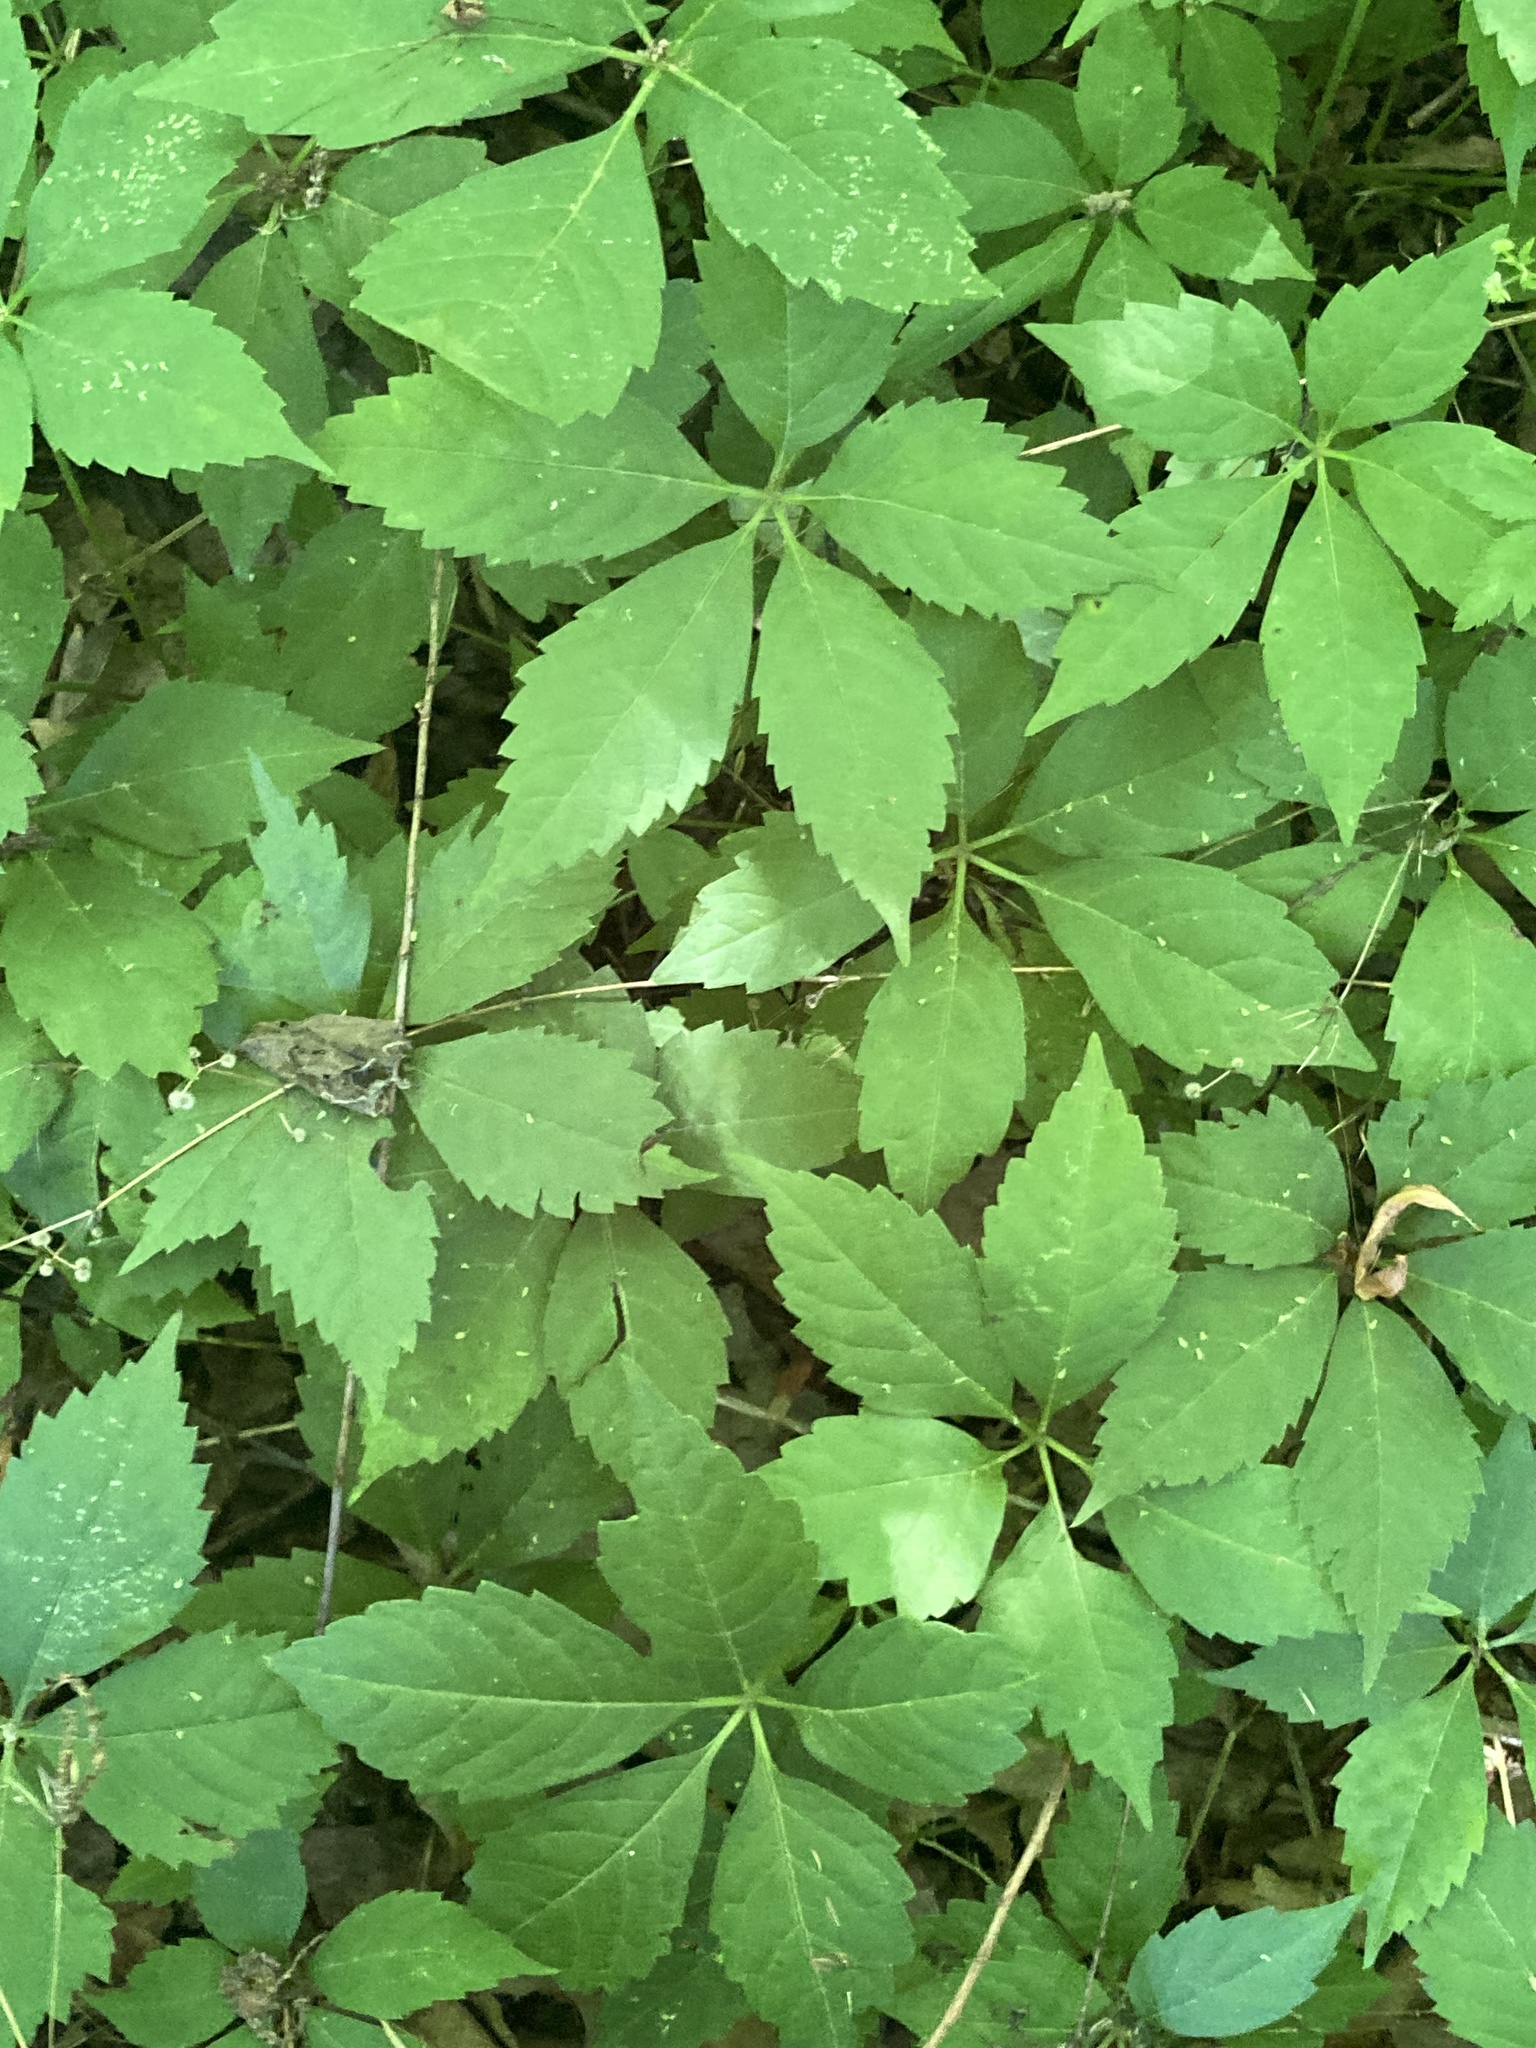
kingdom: Plantae
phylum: Tracheophyta
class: Magnoliopsida
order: Vitales
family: Vitaceae
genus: Parthenocissus
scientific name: Parthenocissus quinquefolia
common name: Virginia-creeper
